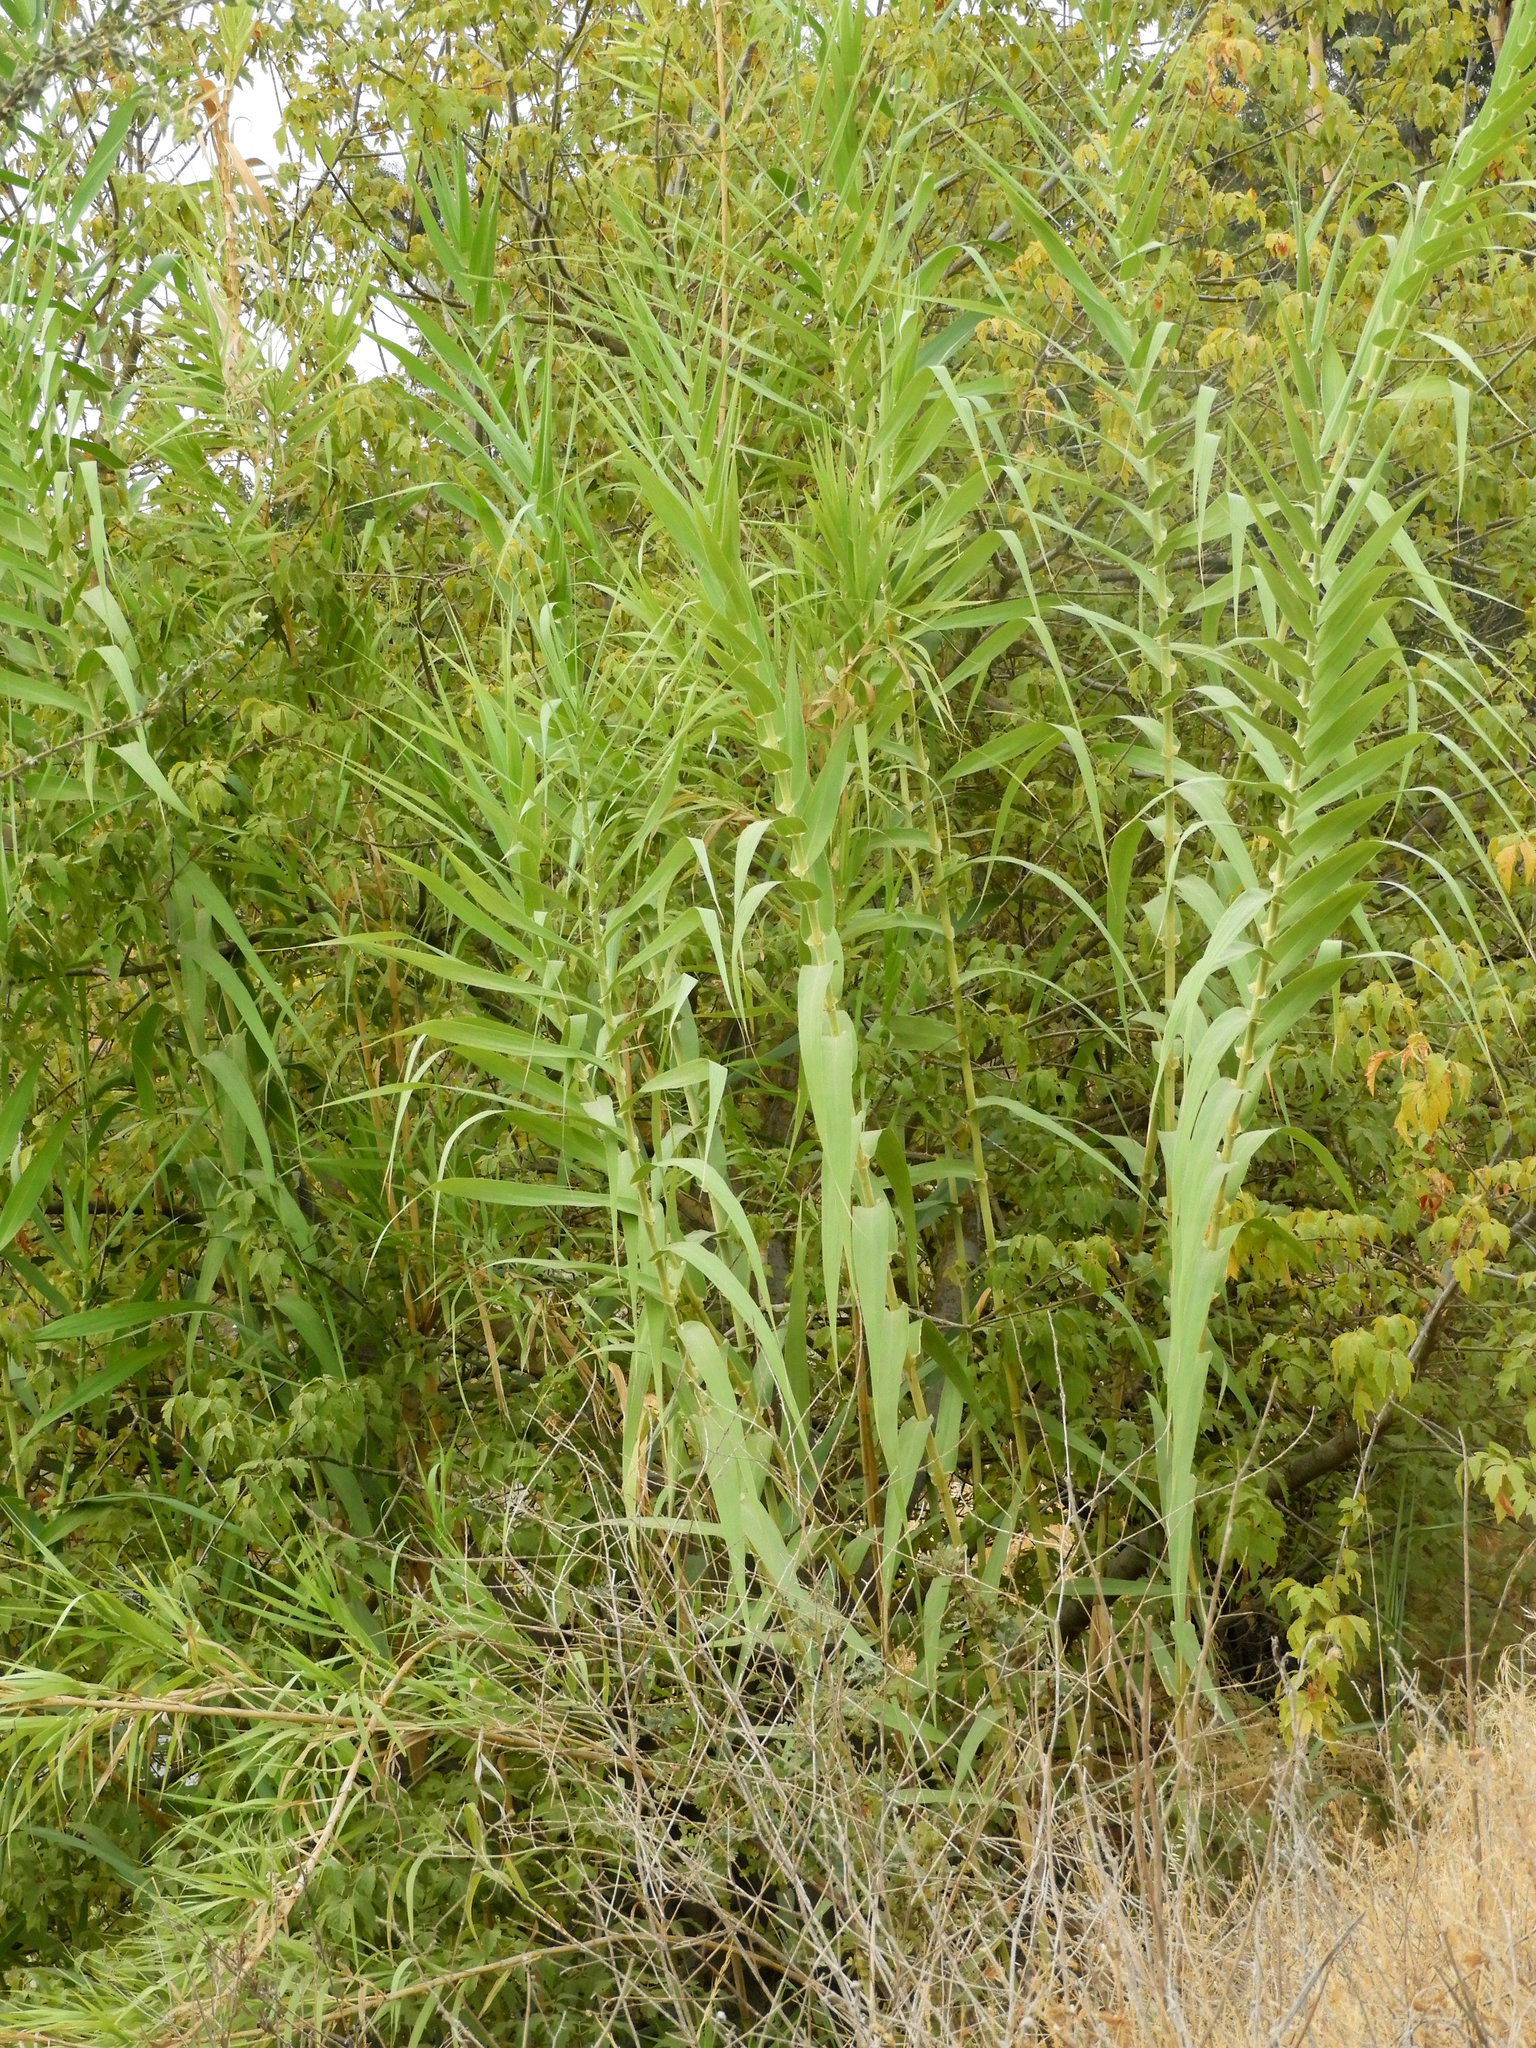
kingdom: Plantae
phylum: Tracheophyta
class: Liliopsida
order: Poales
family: Poaceae
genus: Arundo
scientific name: Arundo donax
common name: Giant reed
